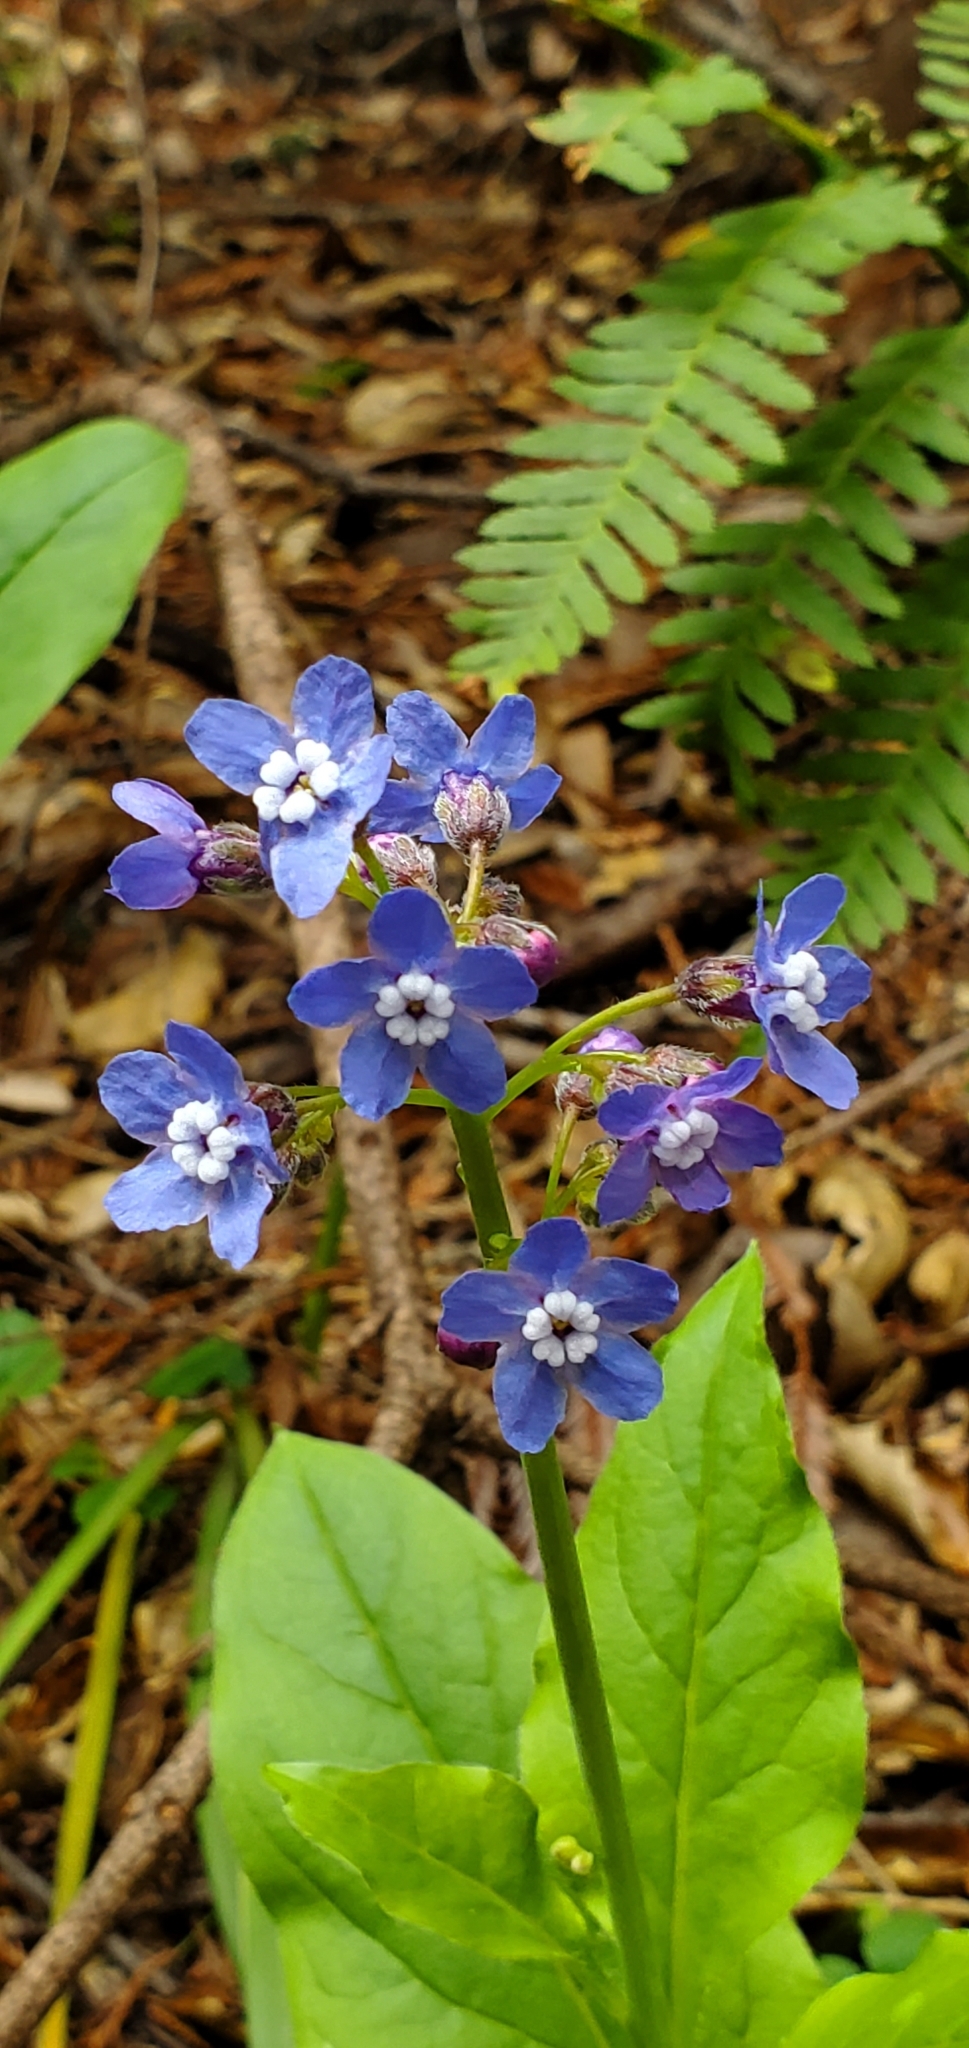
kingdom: Plantae
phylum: Tracheophyta
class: Magnoliopsida
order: Boraginales
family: Boraginaceae
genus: Adelinia
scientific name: Adelinia grande
